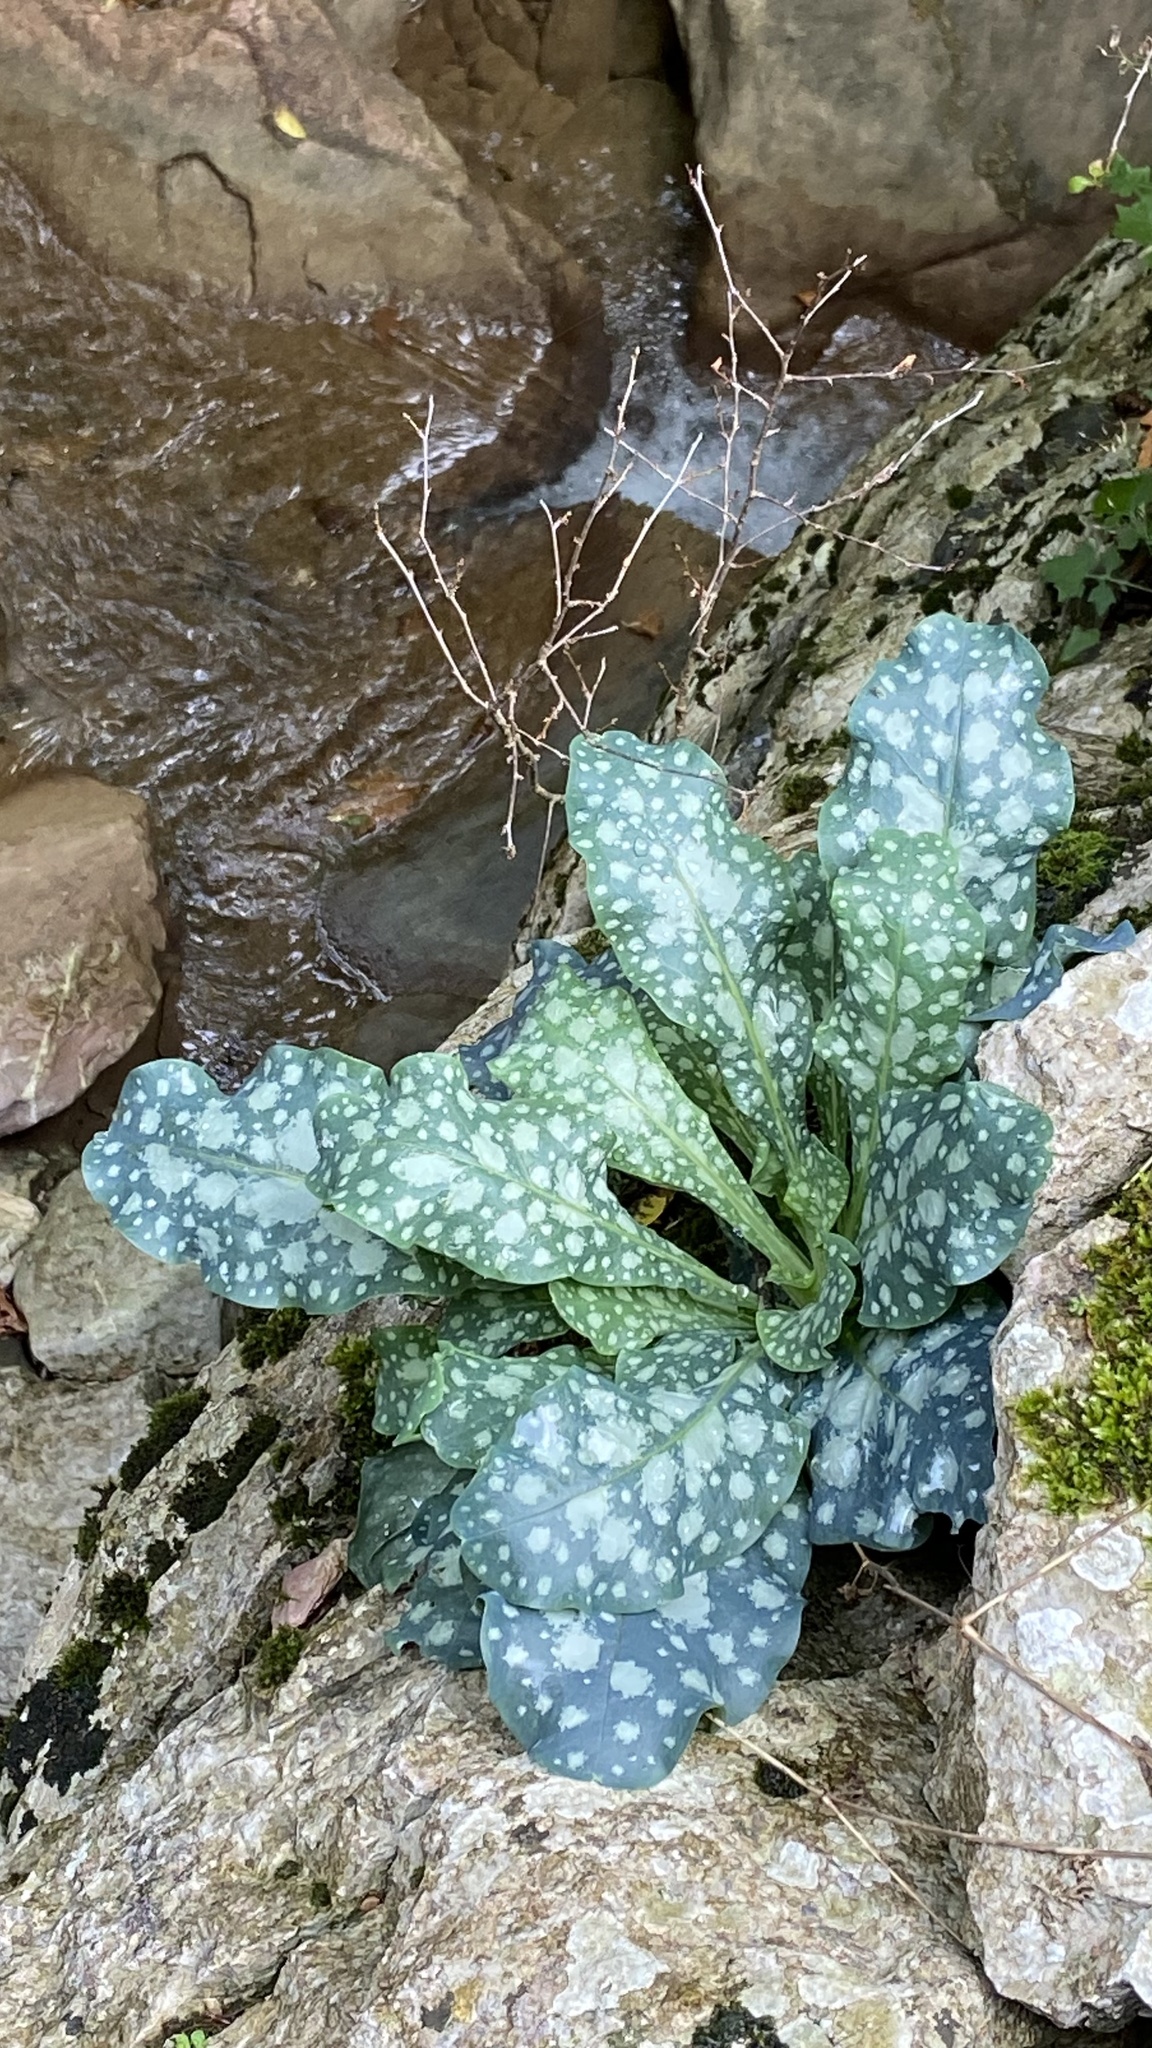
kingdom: Plantae
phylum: Tracheophyta
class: Magnoliopsida
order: Boraginales
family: Boraginaceae
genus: Pulmonaria
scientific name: Pulmonaria officinalis
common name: Lungwort
